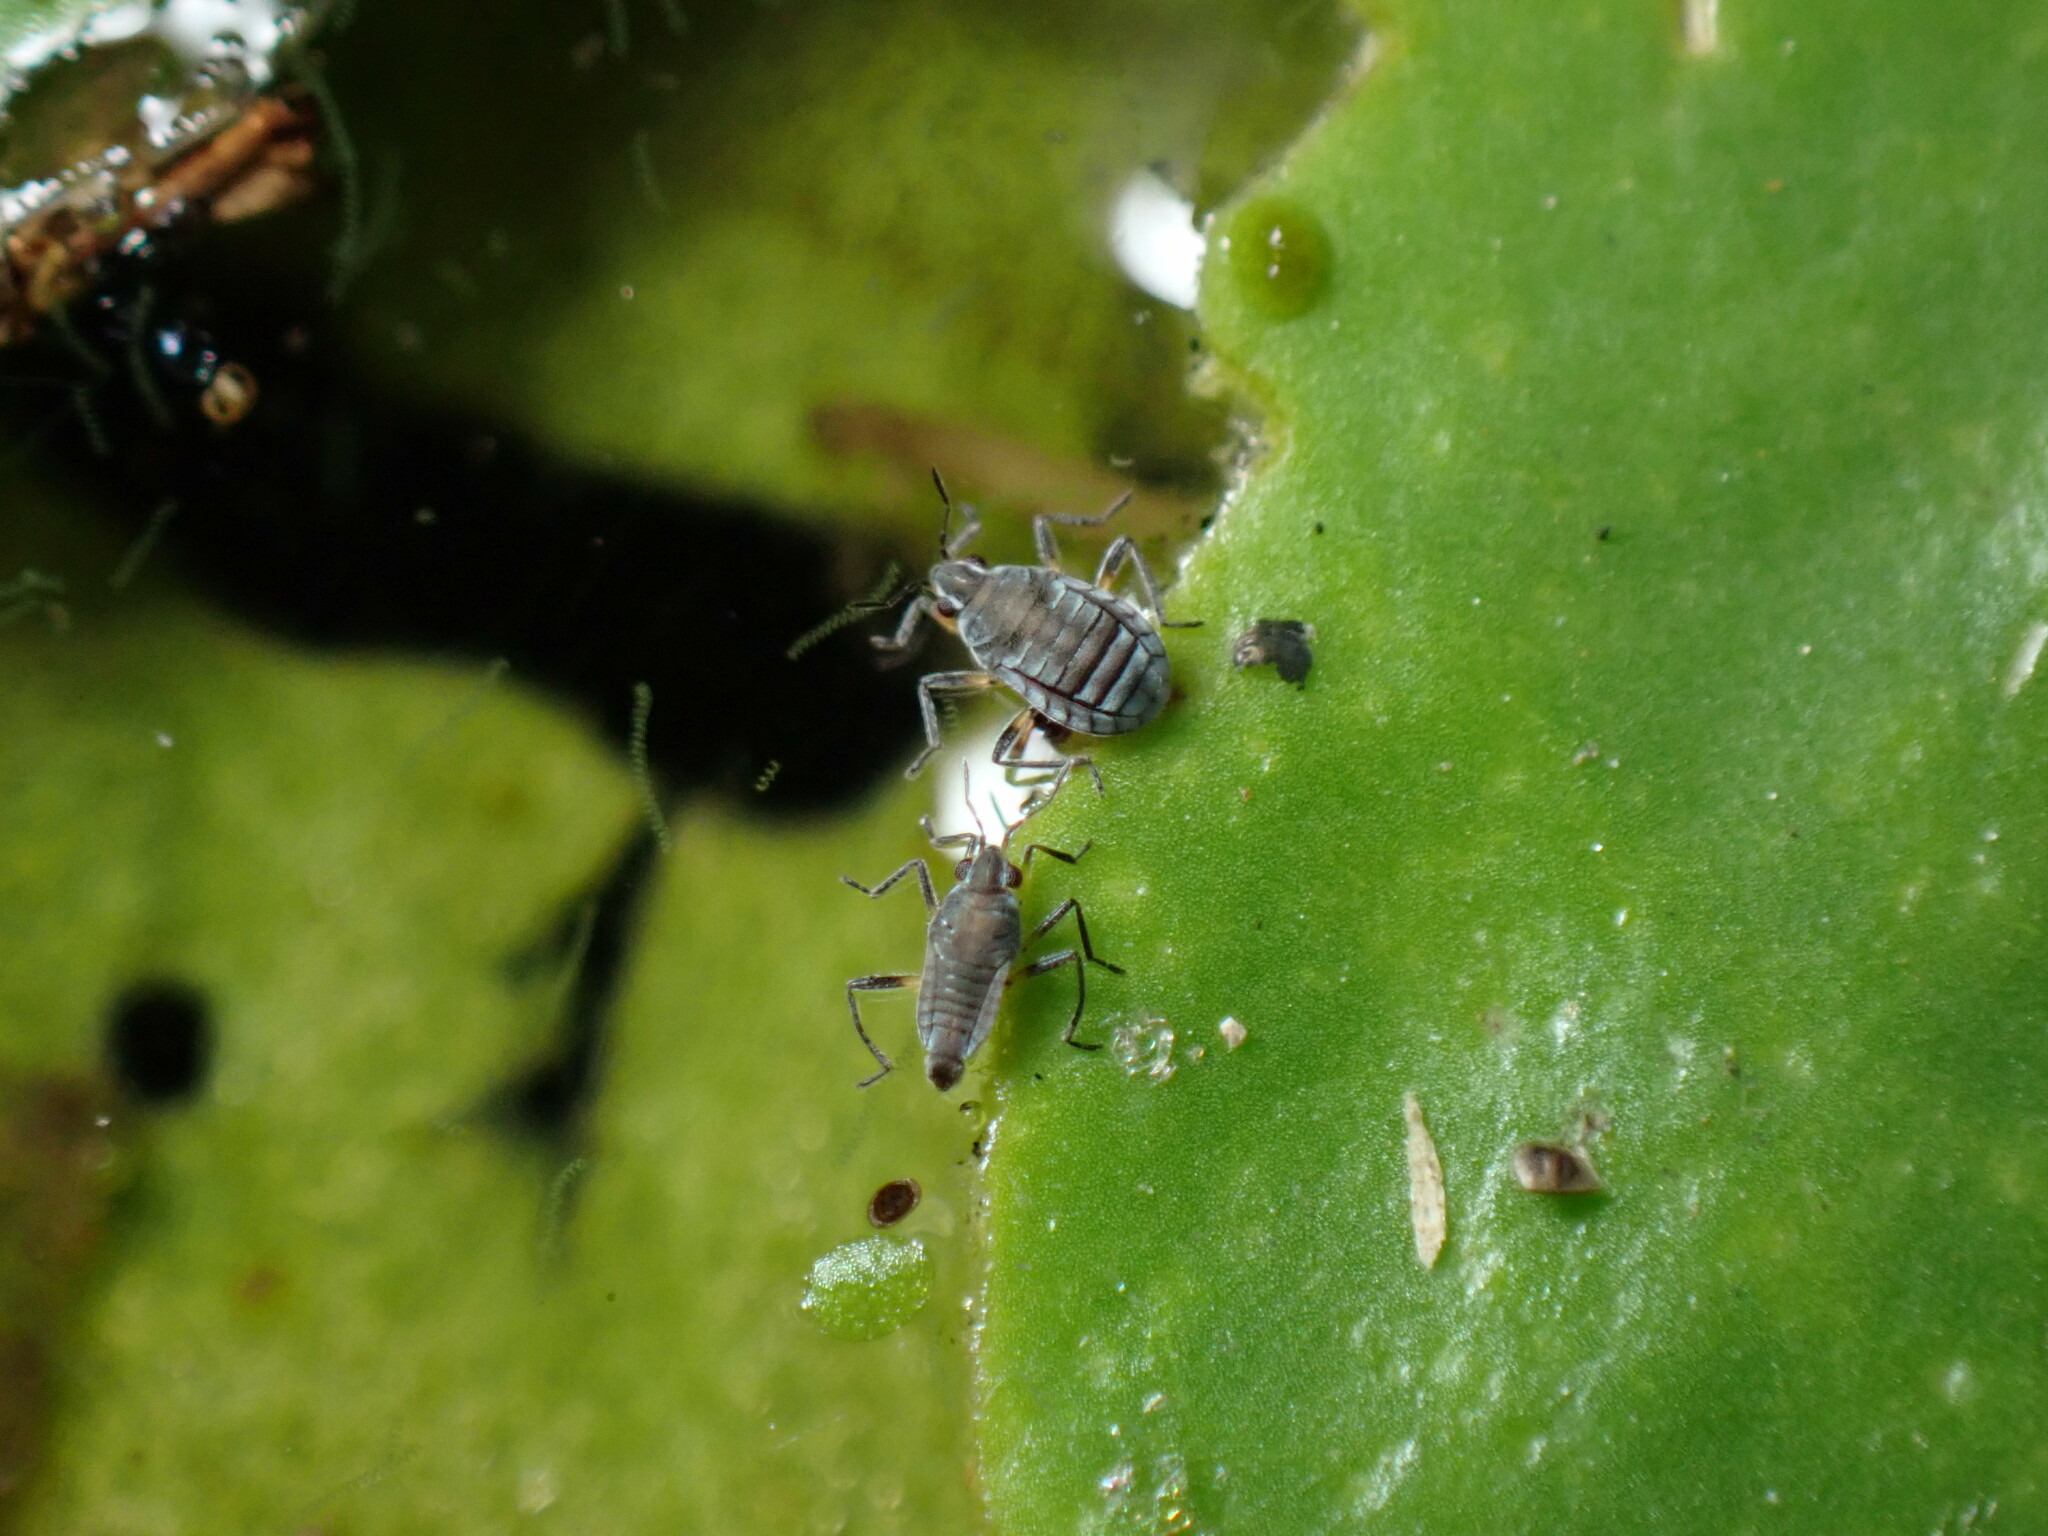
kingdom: Animalia
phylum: Arthropoda
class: Insecta
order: Hemiptera
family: Veliidae
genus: Microvelia
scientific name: Microvelia pulchella
